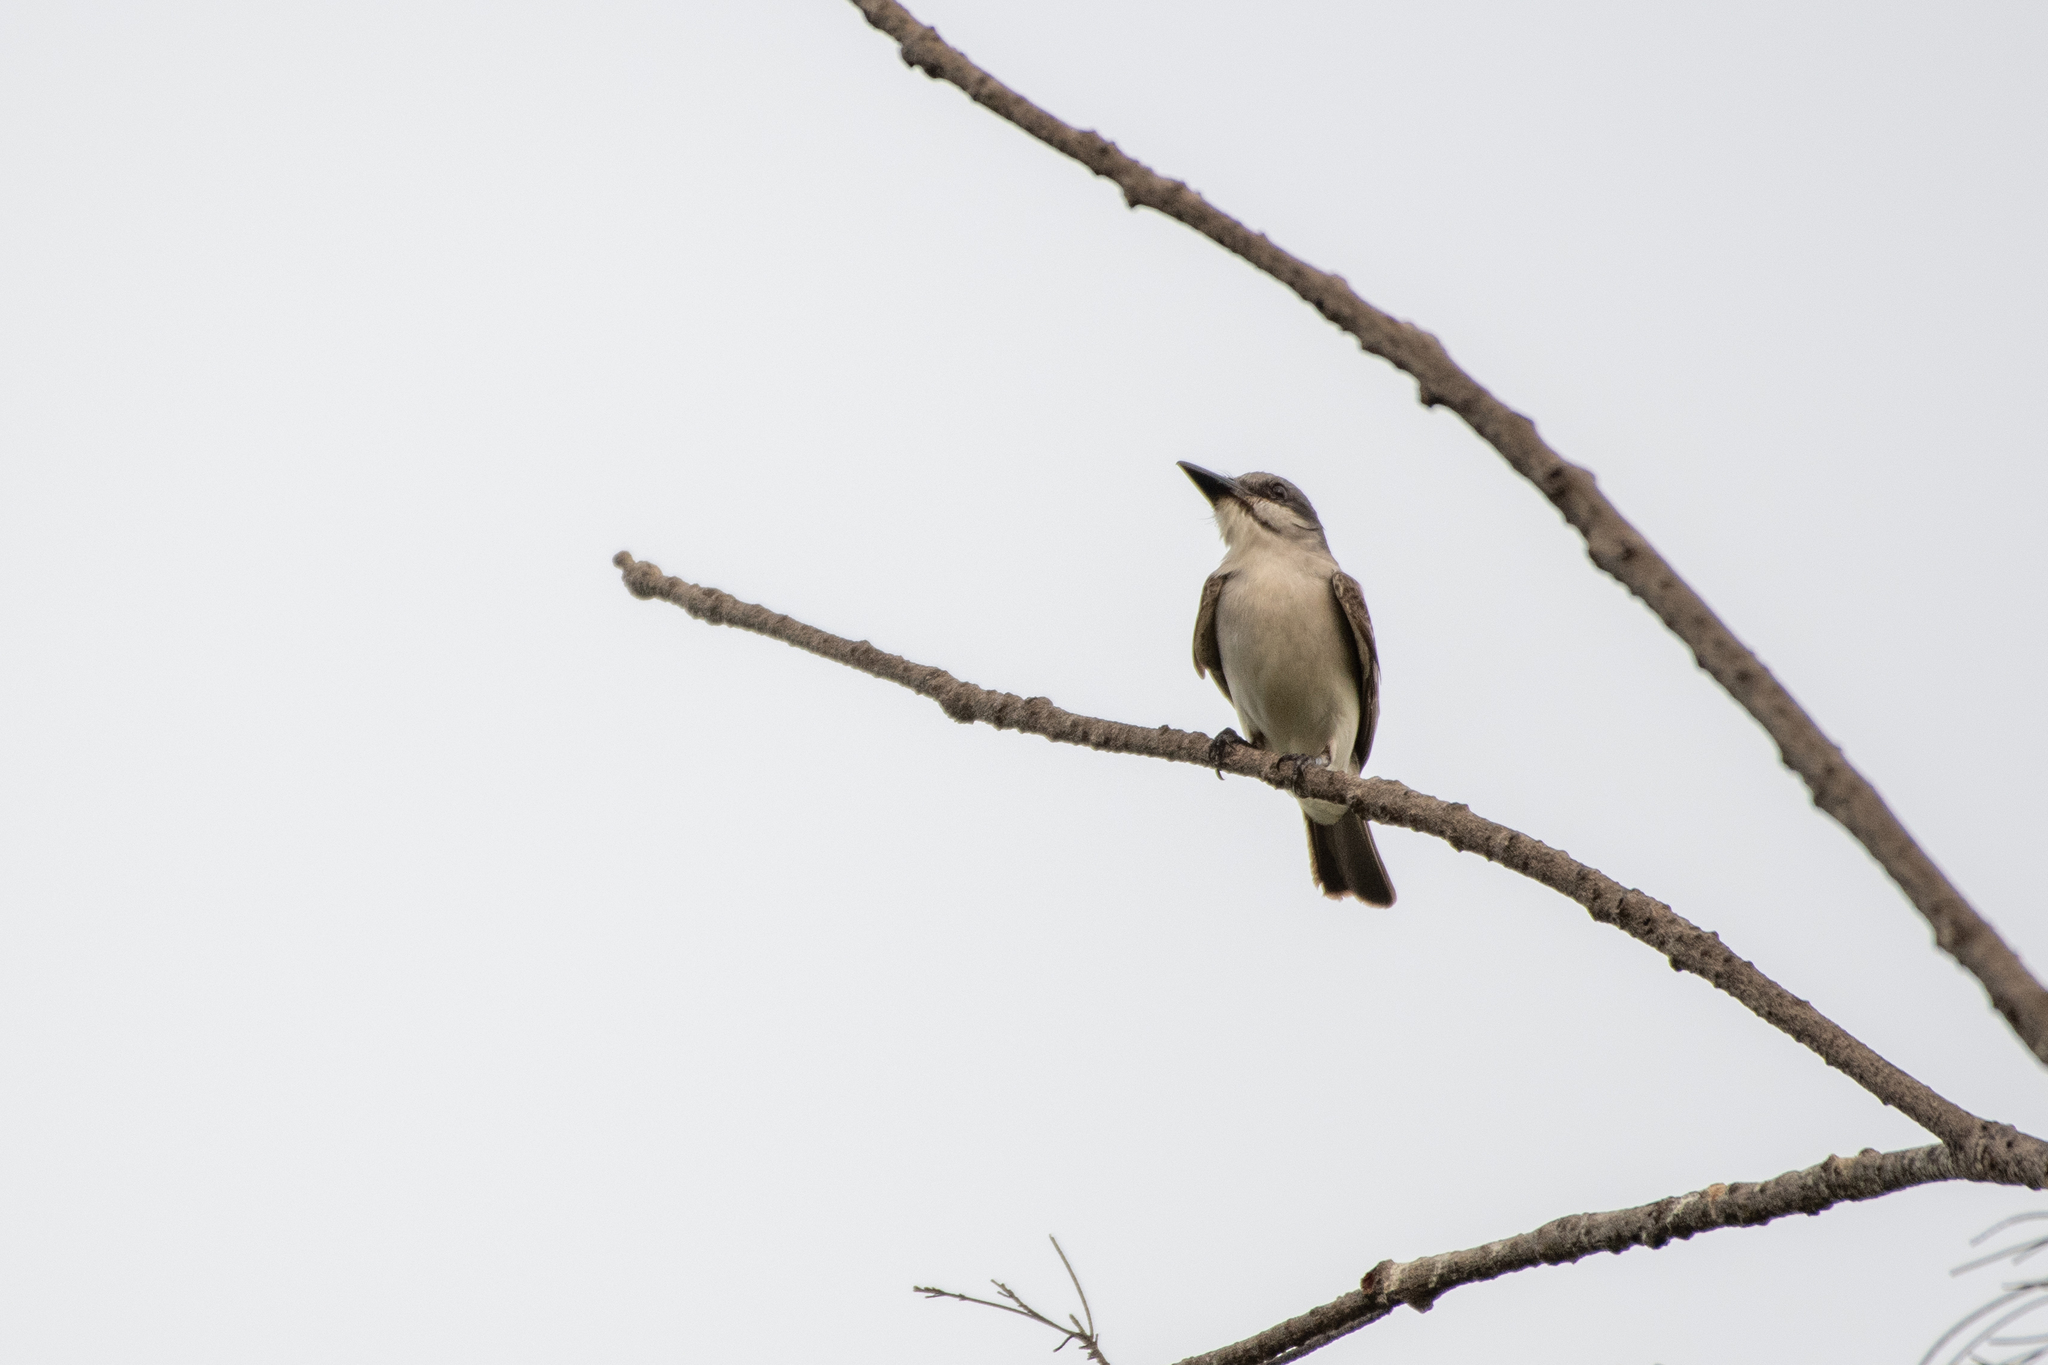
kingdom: Animalia
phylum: Chordata
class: Aves
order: Passeriformes
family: Tyrannidae
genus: Tyrannus
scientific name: Tyrannus dominicensis
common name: Gray kingbird
